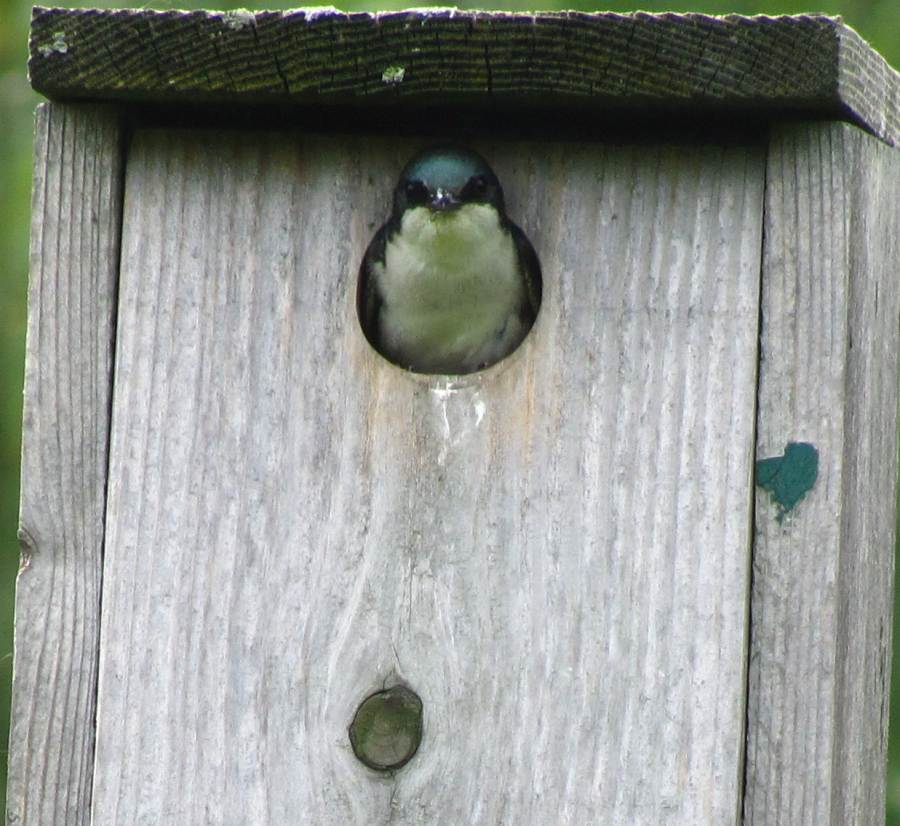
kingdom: Animalia
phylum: Chordata
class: Aves
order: Passeriformes
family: Hirundinidae
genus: Tachycineta
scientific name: Tachycineta bicolor
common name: Tree swallow
